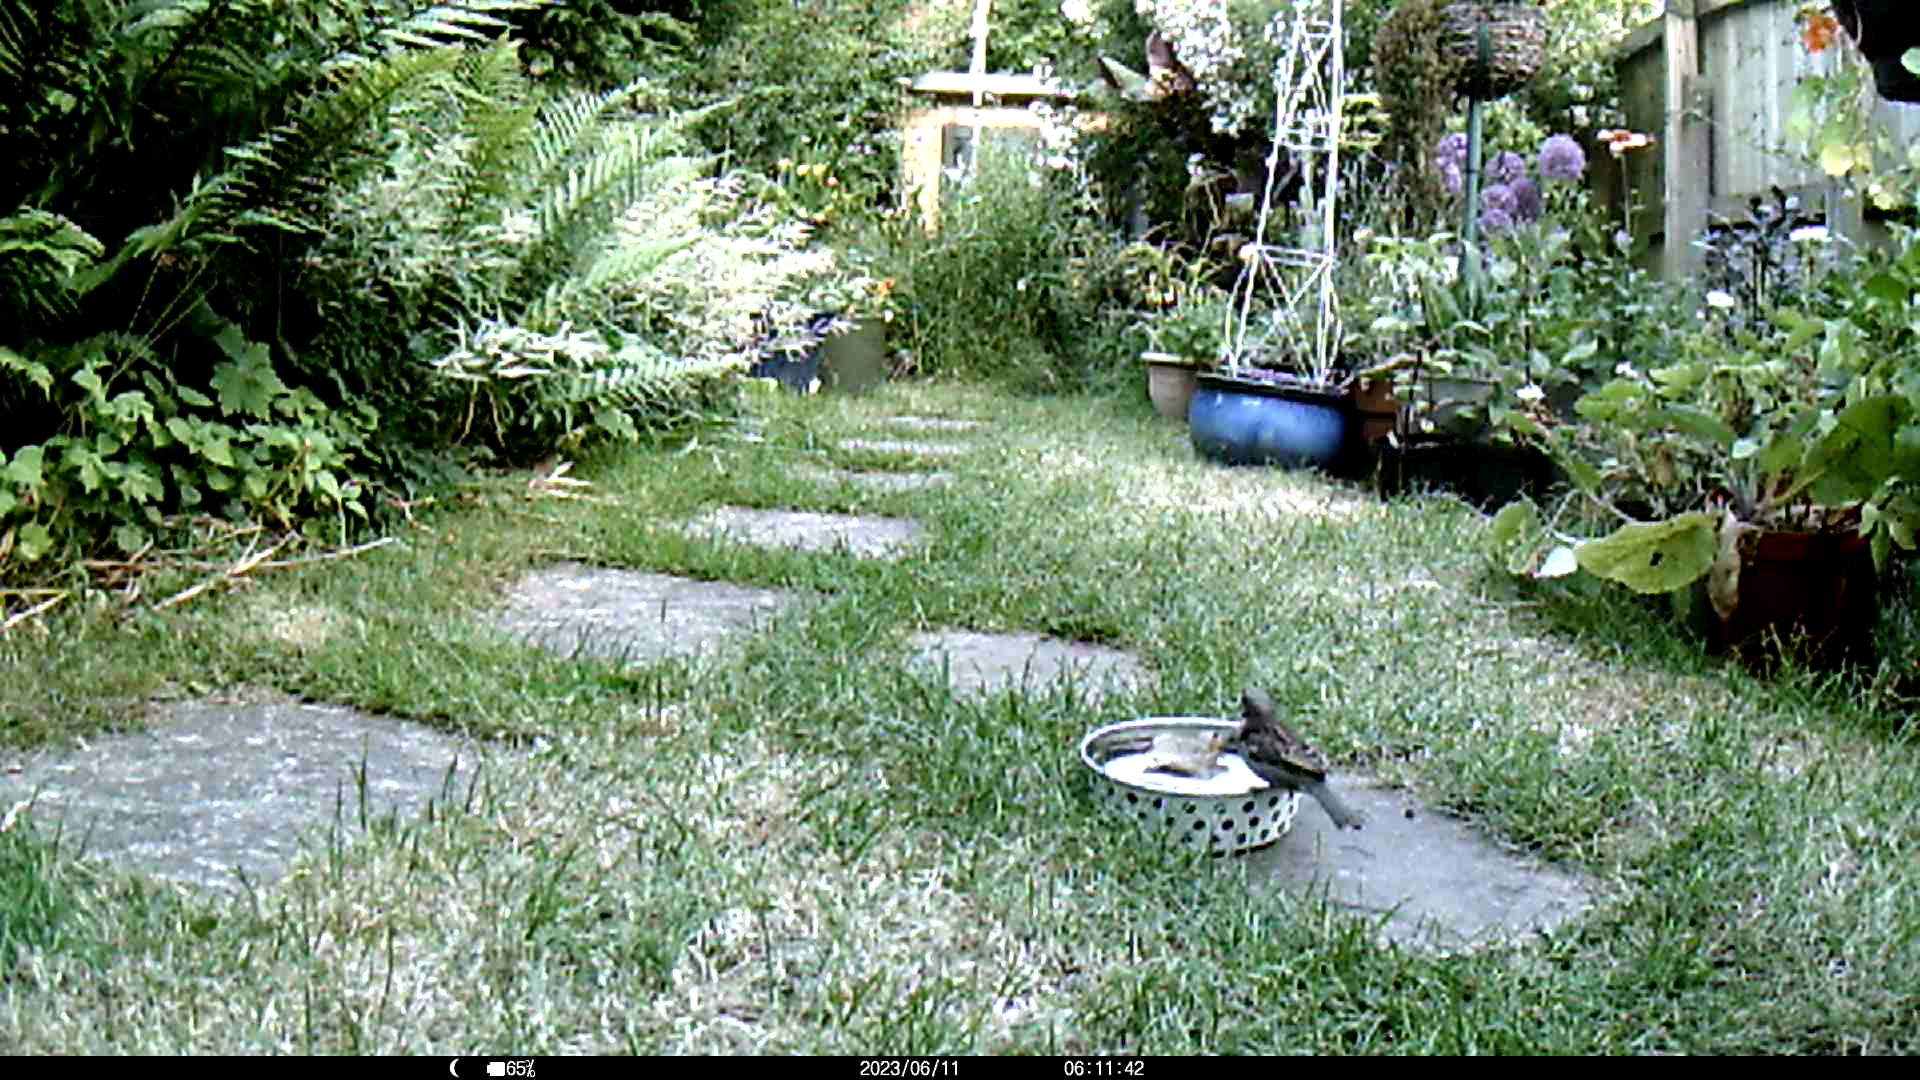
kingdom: Animalia
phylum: Chordata
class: Aves
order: Passeriformes
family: Passeridae
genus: Passer
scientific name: Passer domesticus
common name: House sparrow
